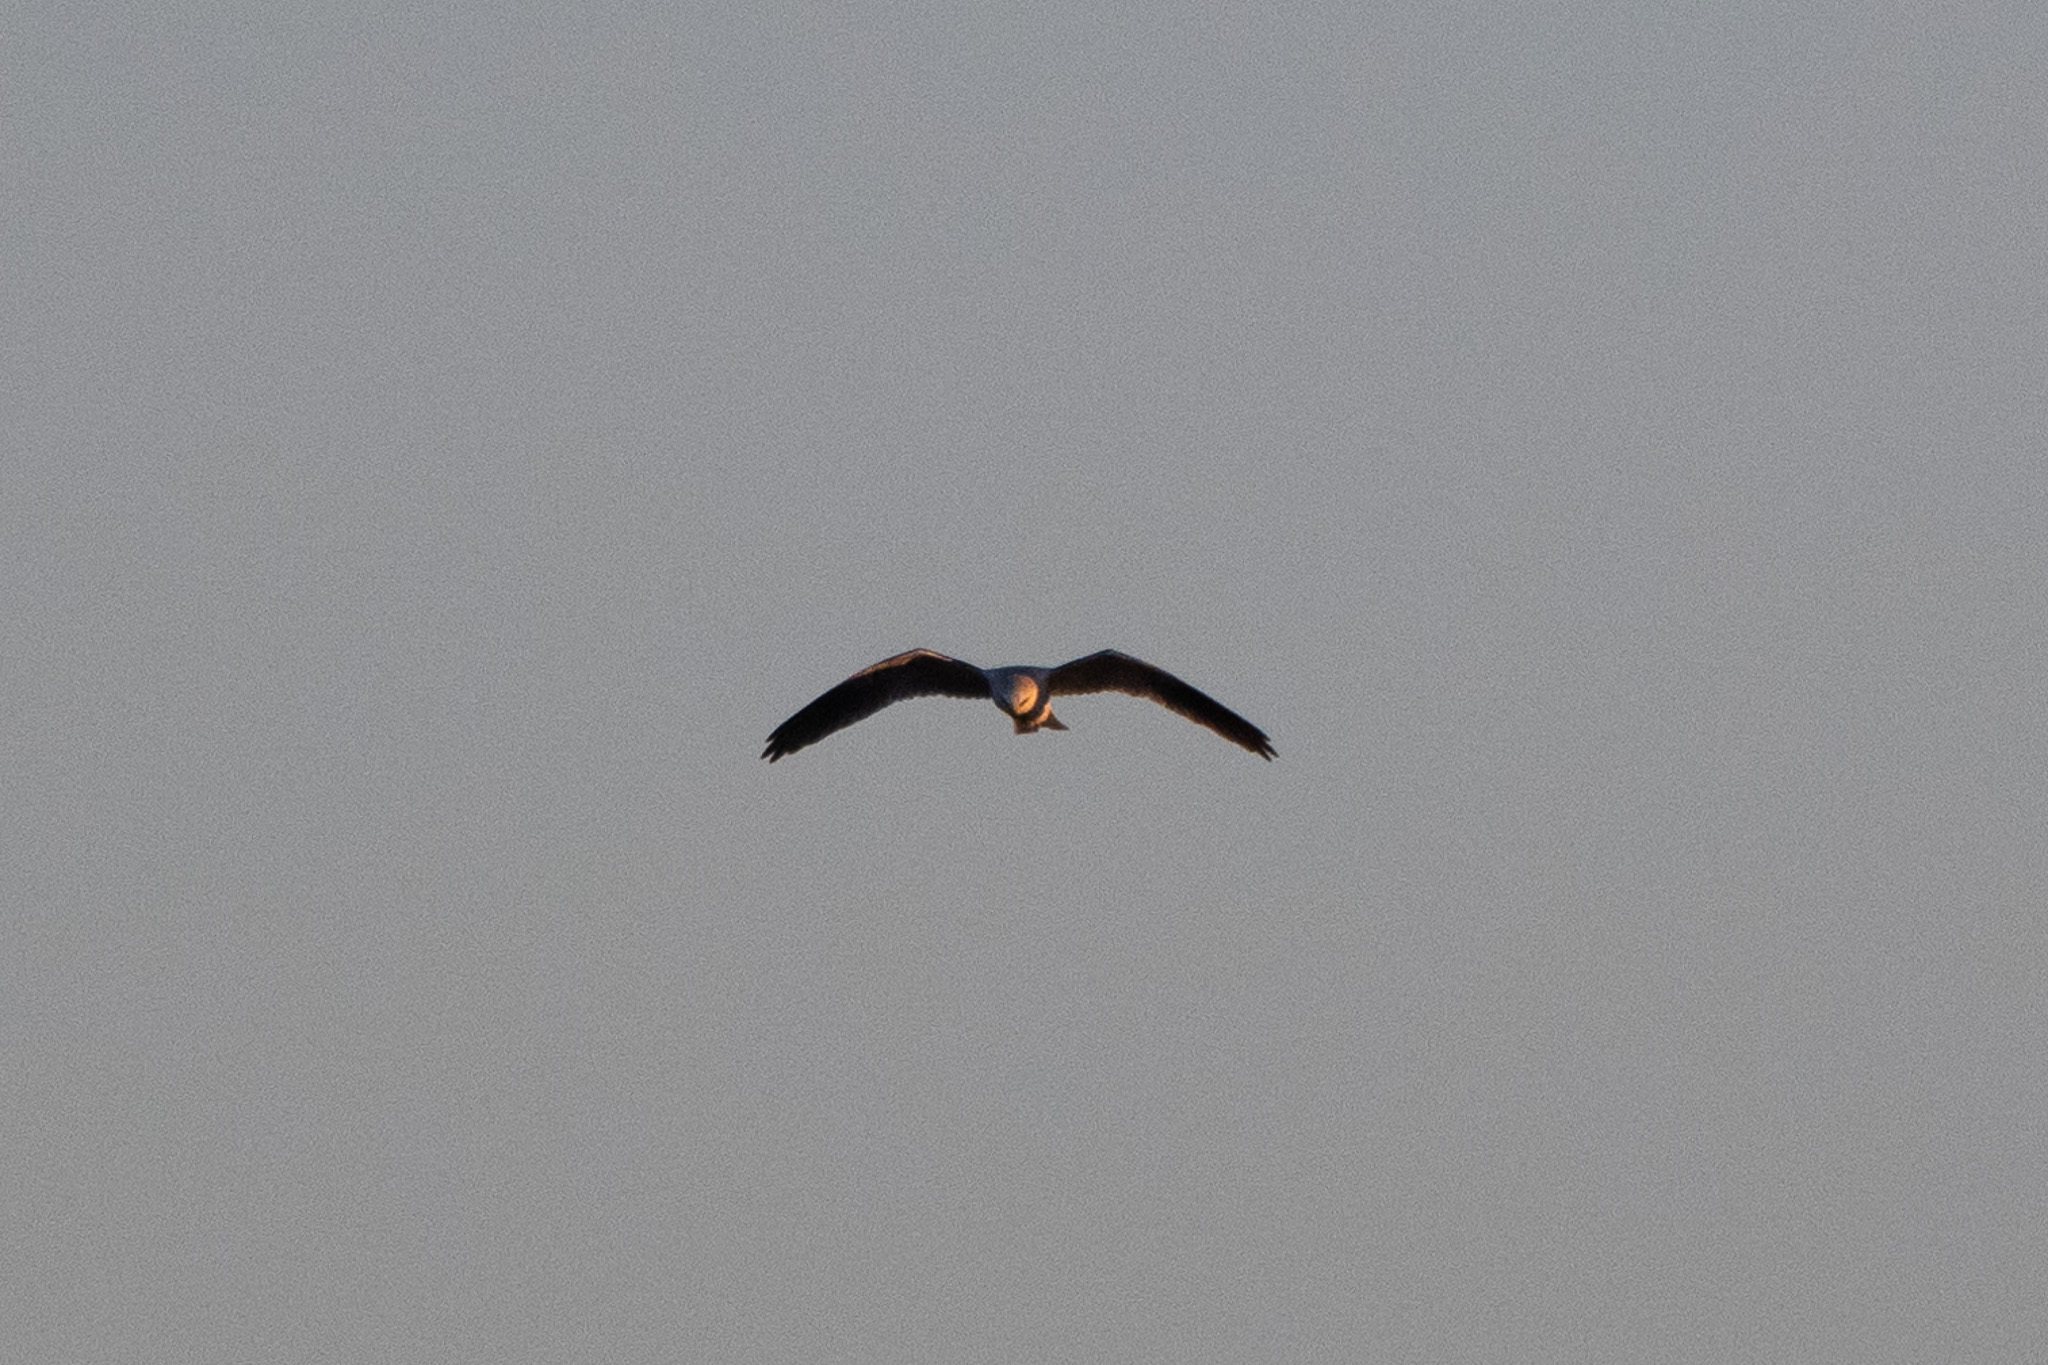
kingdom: Animalia
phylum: Chordata
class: Aves
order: Accipitriformes
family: Accipitridae
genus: Elanus
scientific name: Elanus leucurus
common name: White-tailed kite
